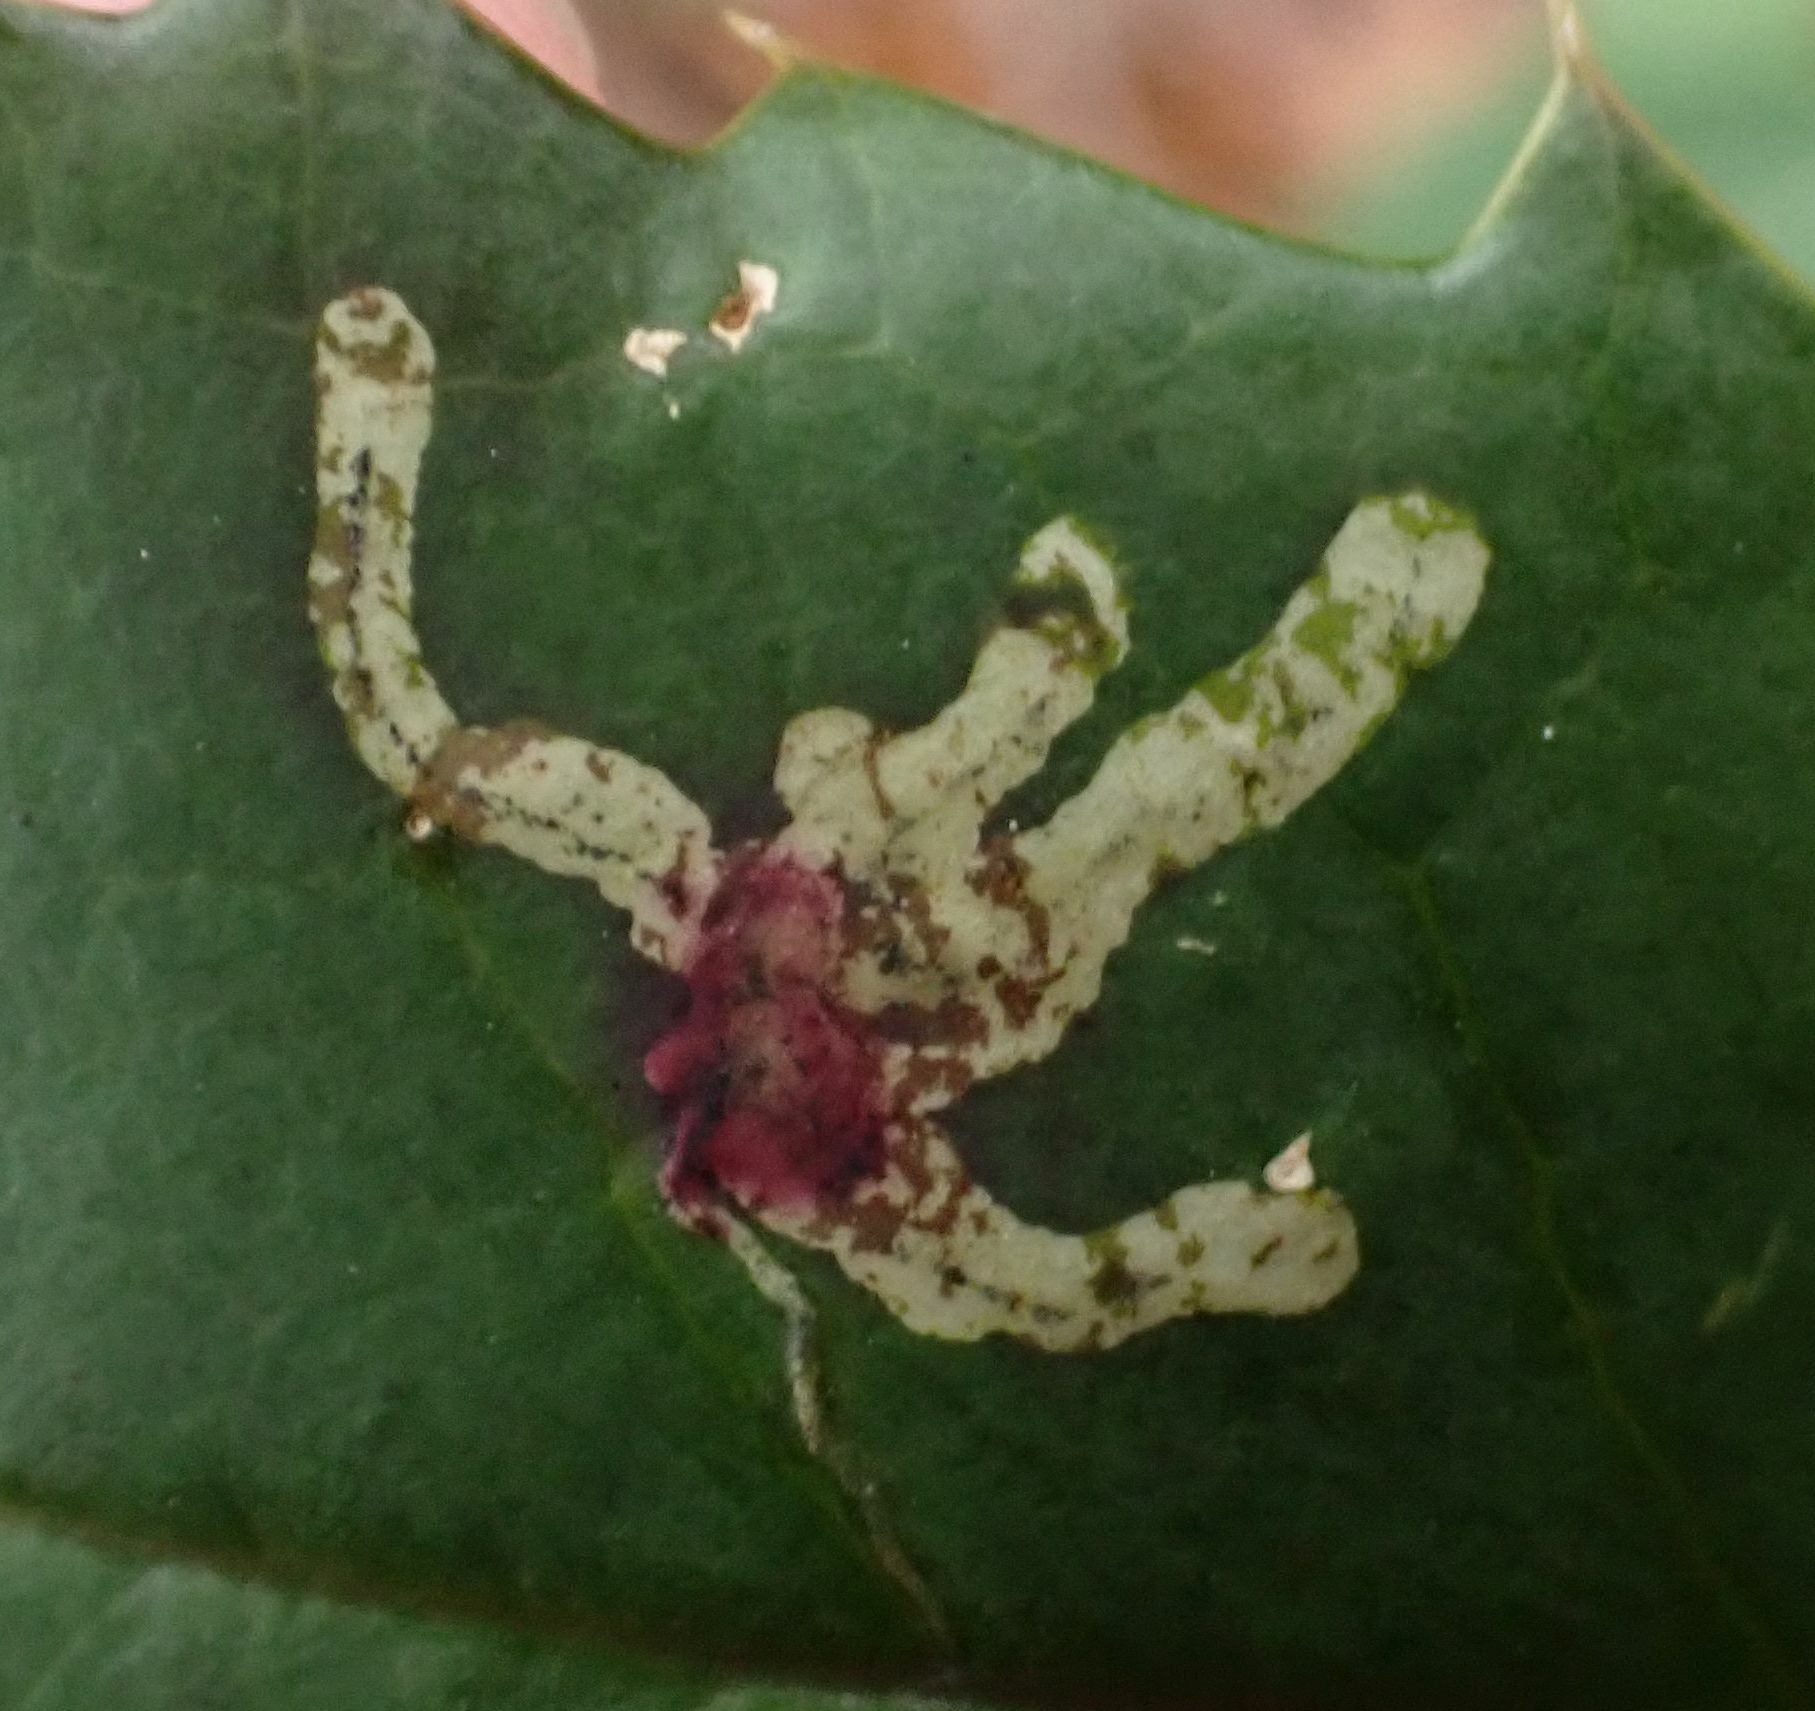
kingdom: Animalia
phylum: Arthropoda
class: Insecta
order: Diptera
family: Agromyzidae
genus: Phytomyza
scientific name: Phytomyza ilicis
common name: Holly leafminer
